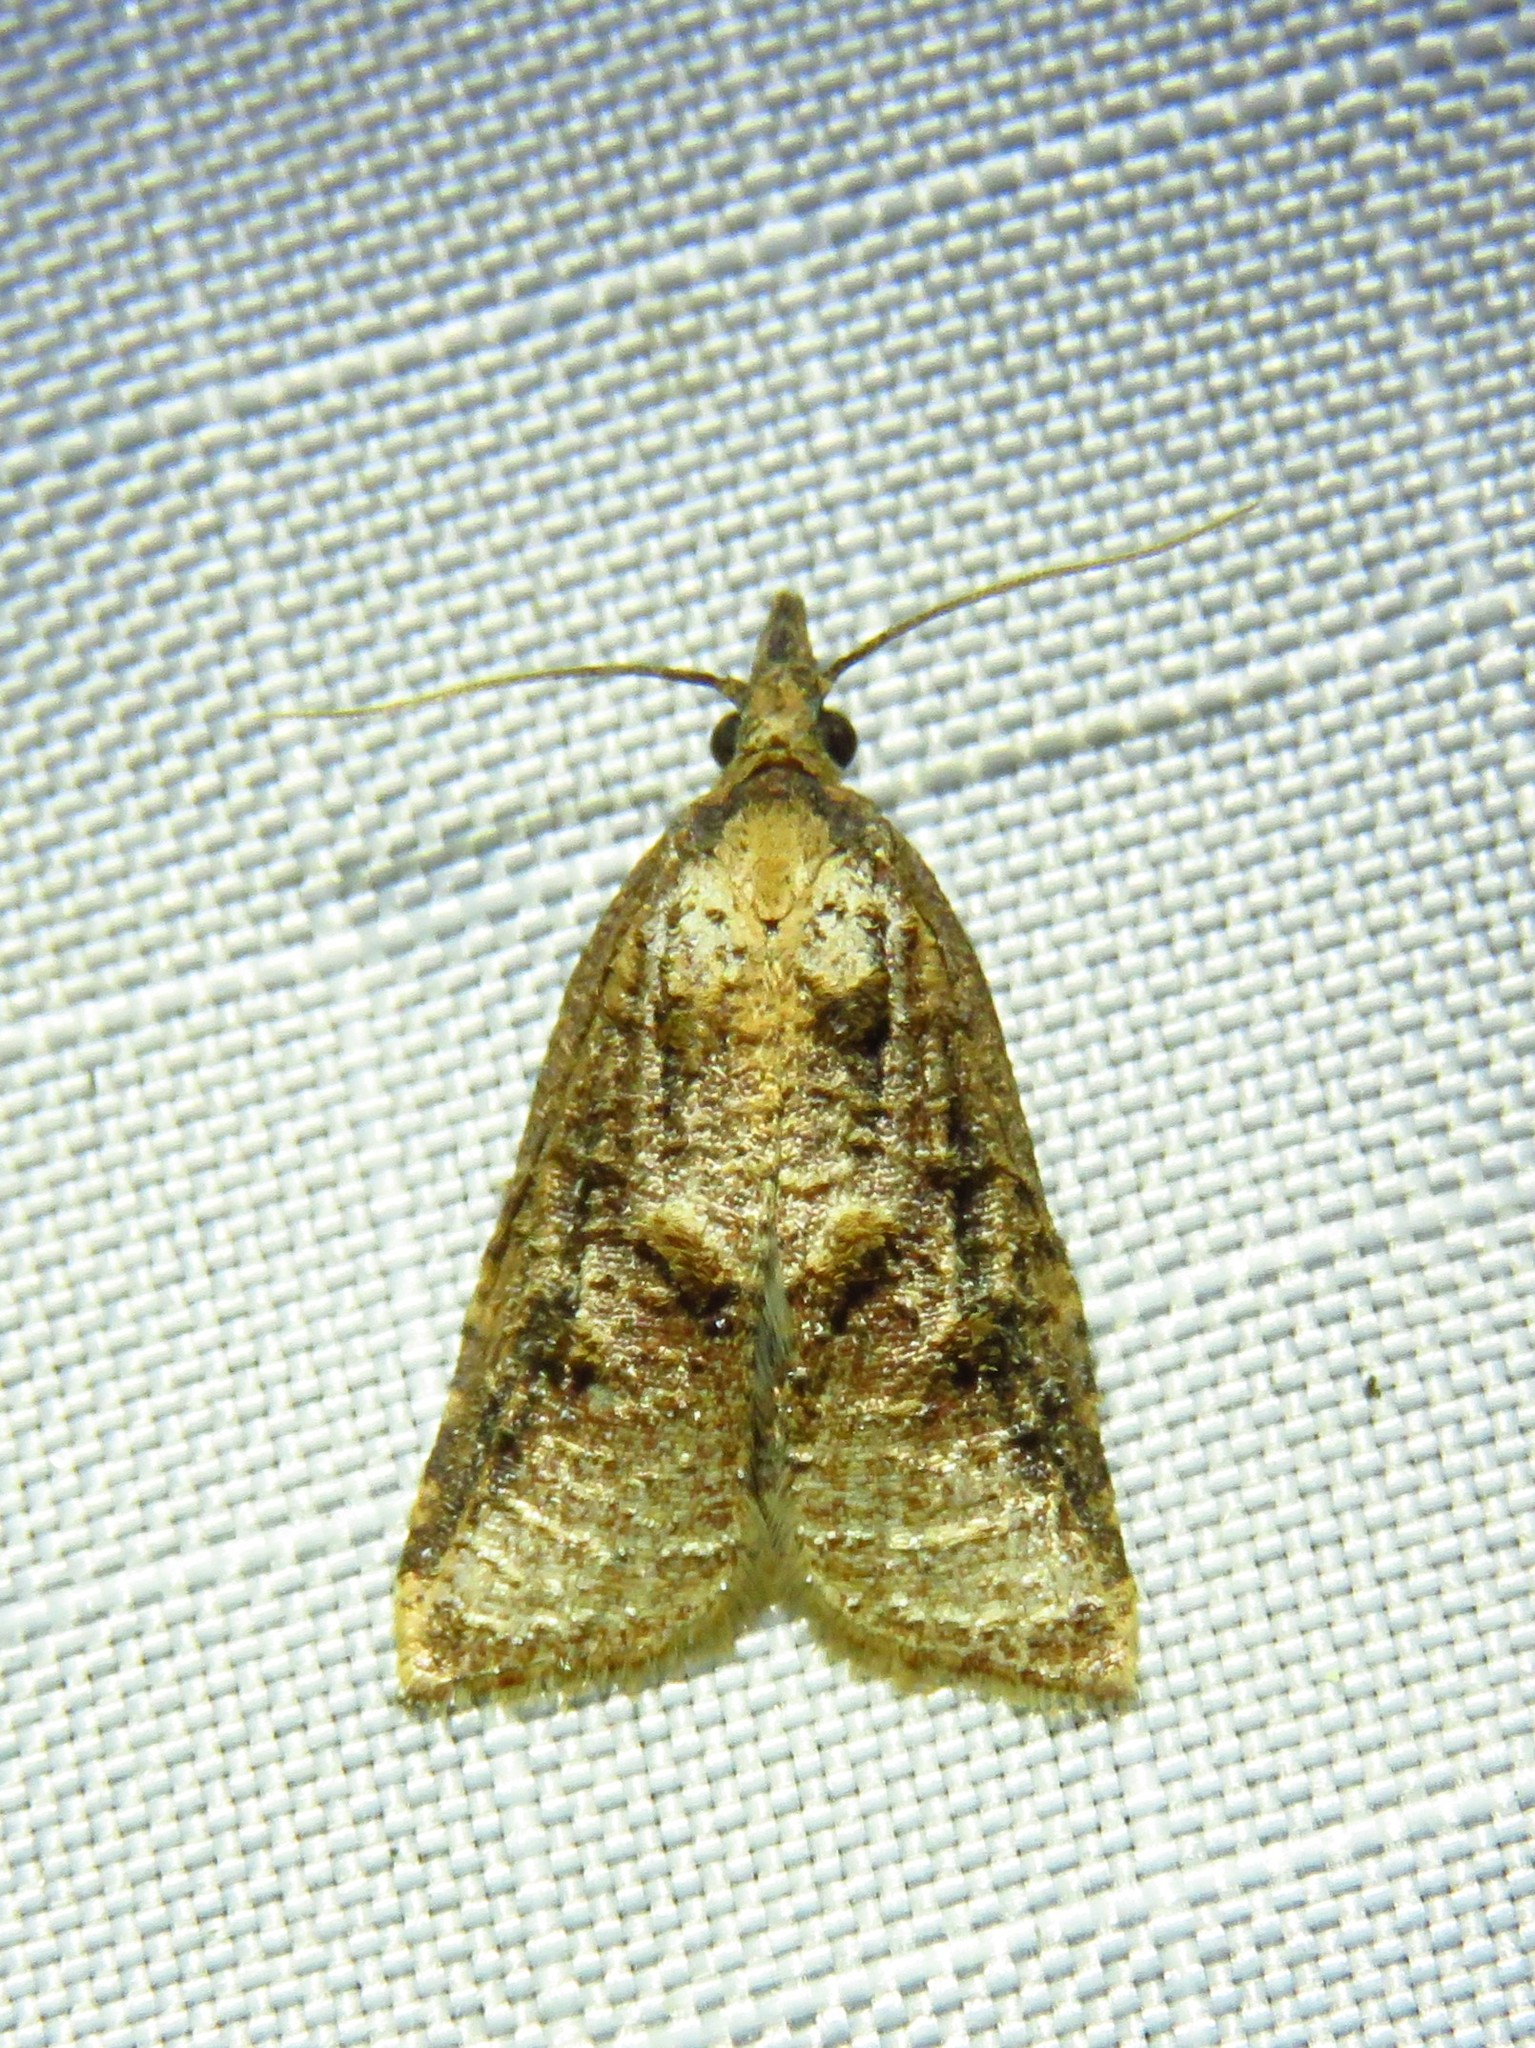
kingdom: Animalia
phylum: Arthropoda
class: Insecta
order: Lepidoptera
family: Tortricidae
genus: Platynota
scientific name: Platynota rostrana
